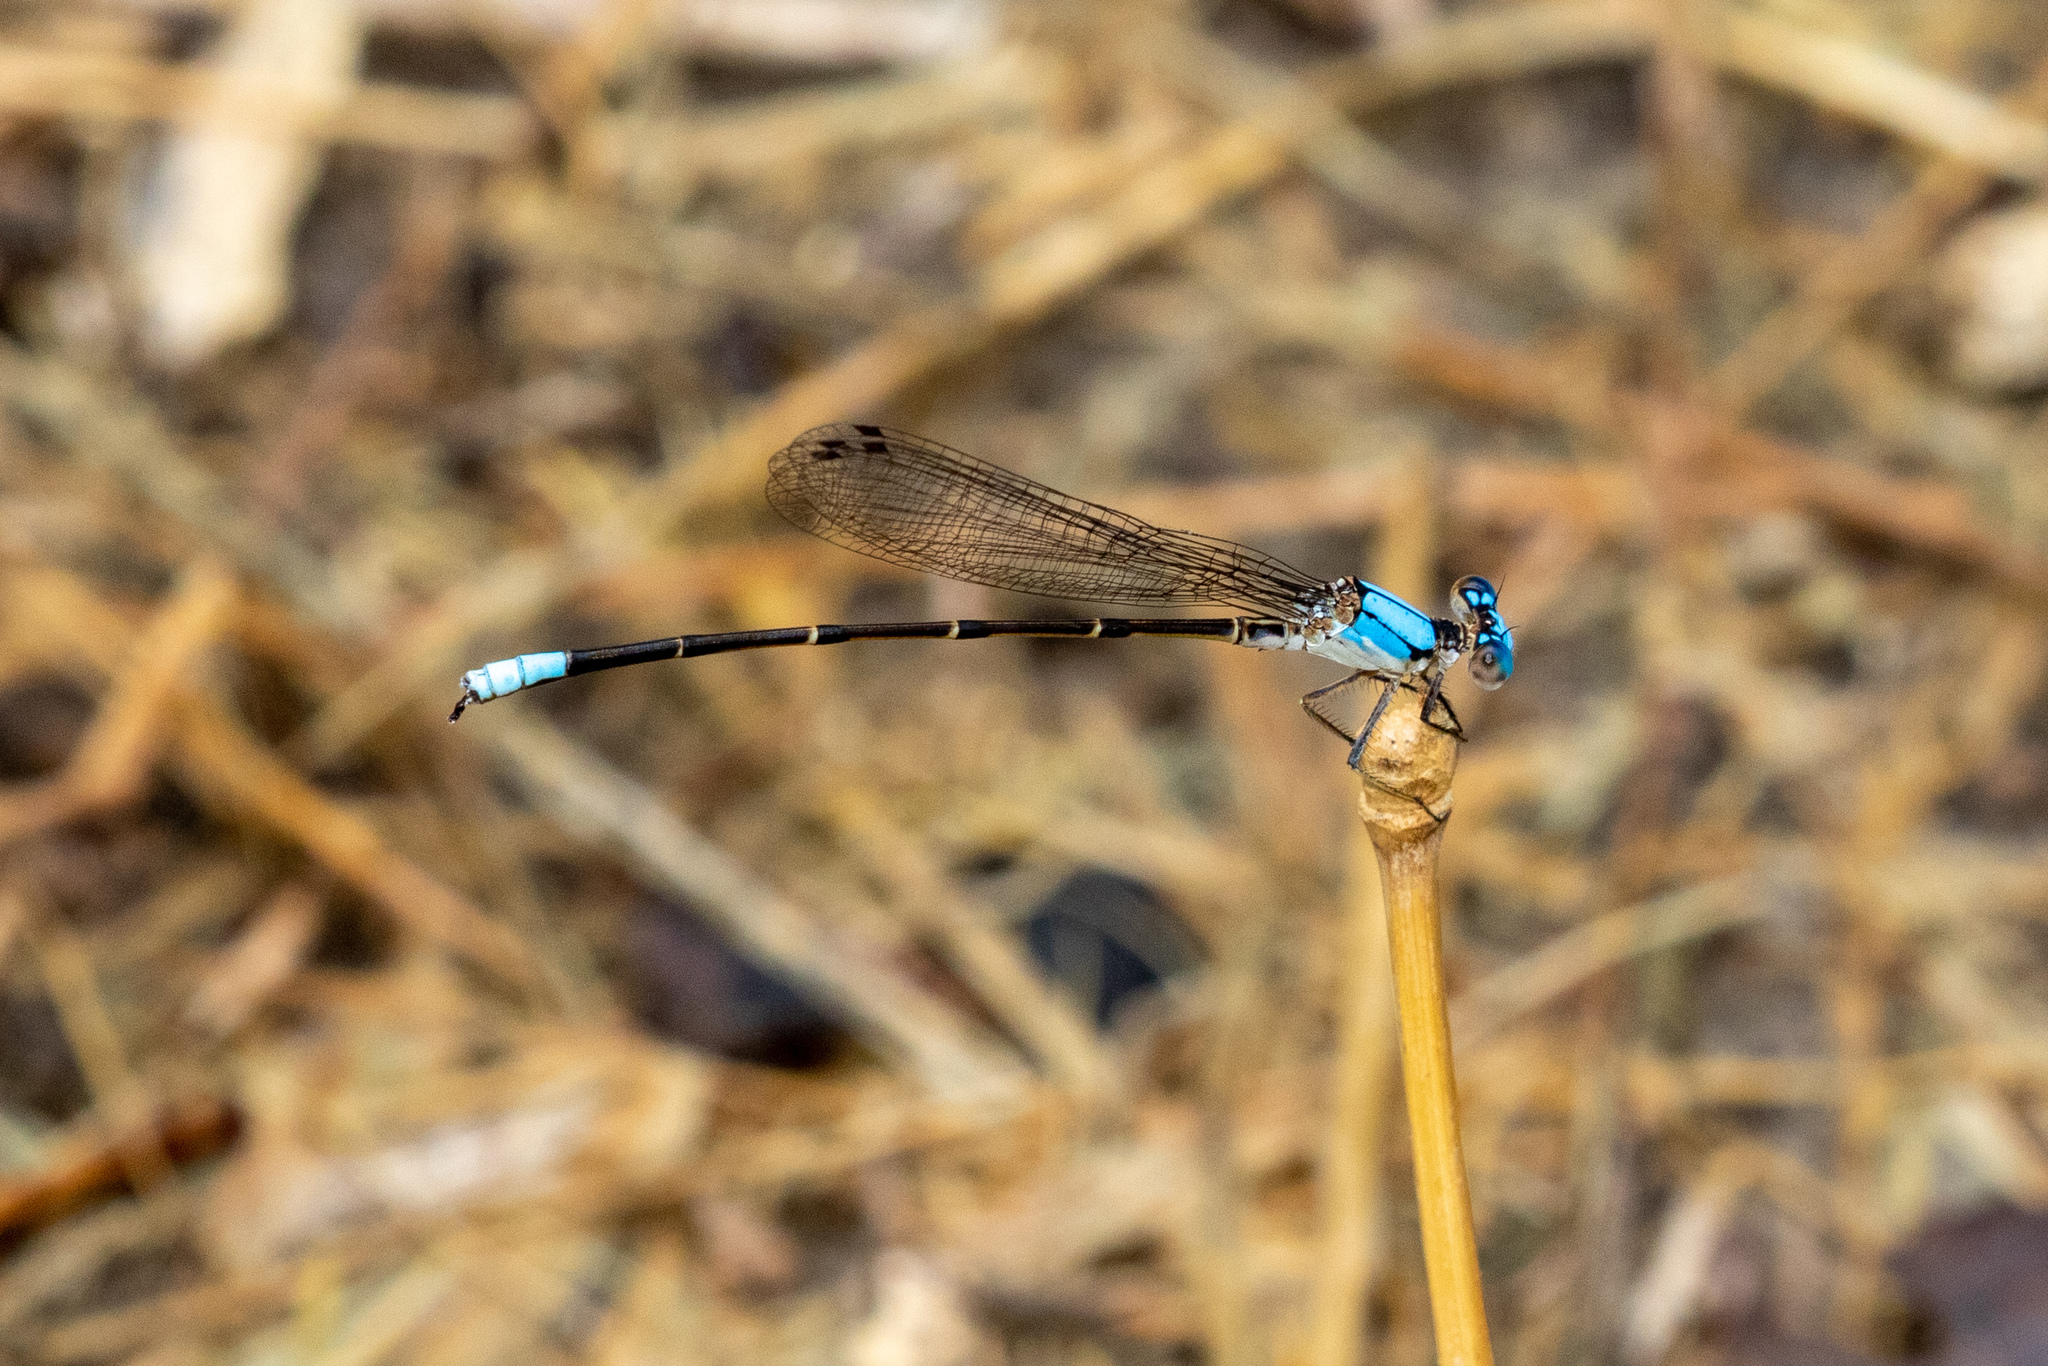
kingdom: Animalia
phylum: Arthropoda
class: Insecta
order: Odonata
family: Coenagrionidae
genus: Argia
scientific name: Argia apicalis
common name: Blue-fronted dancer
